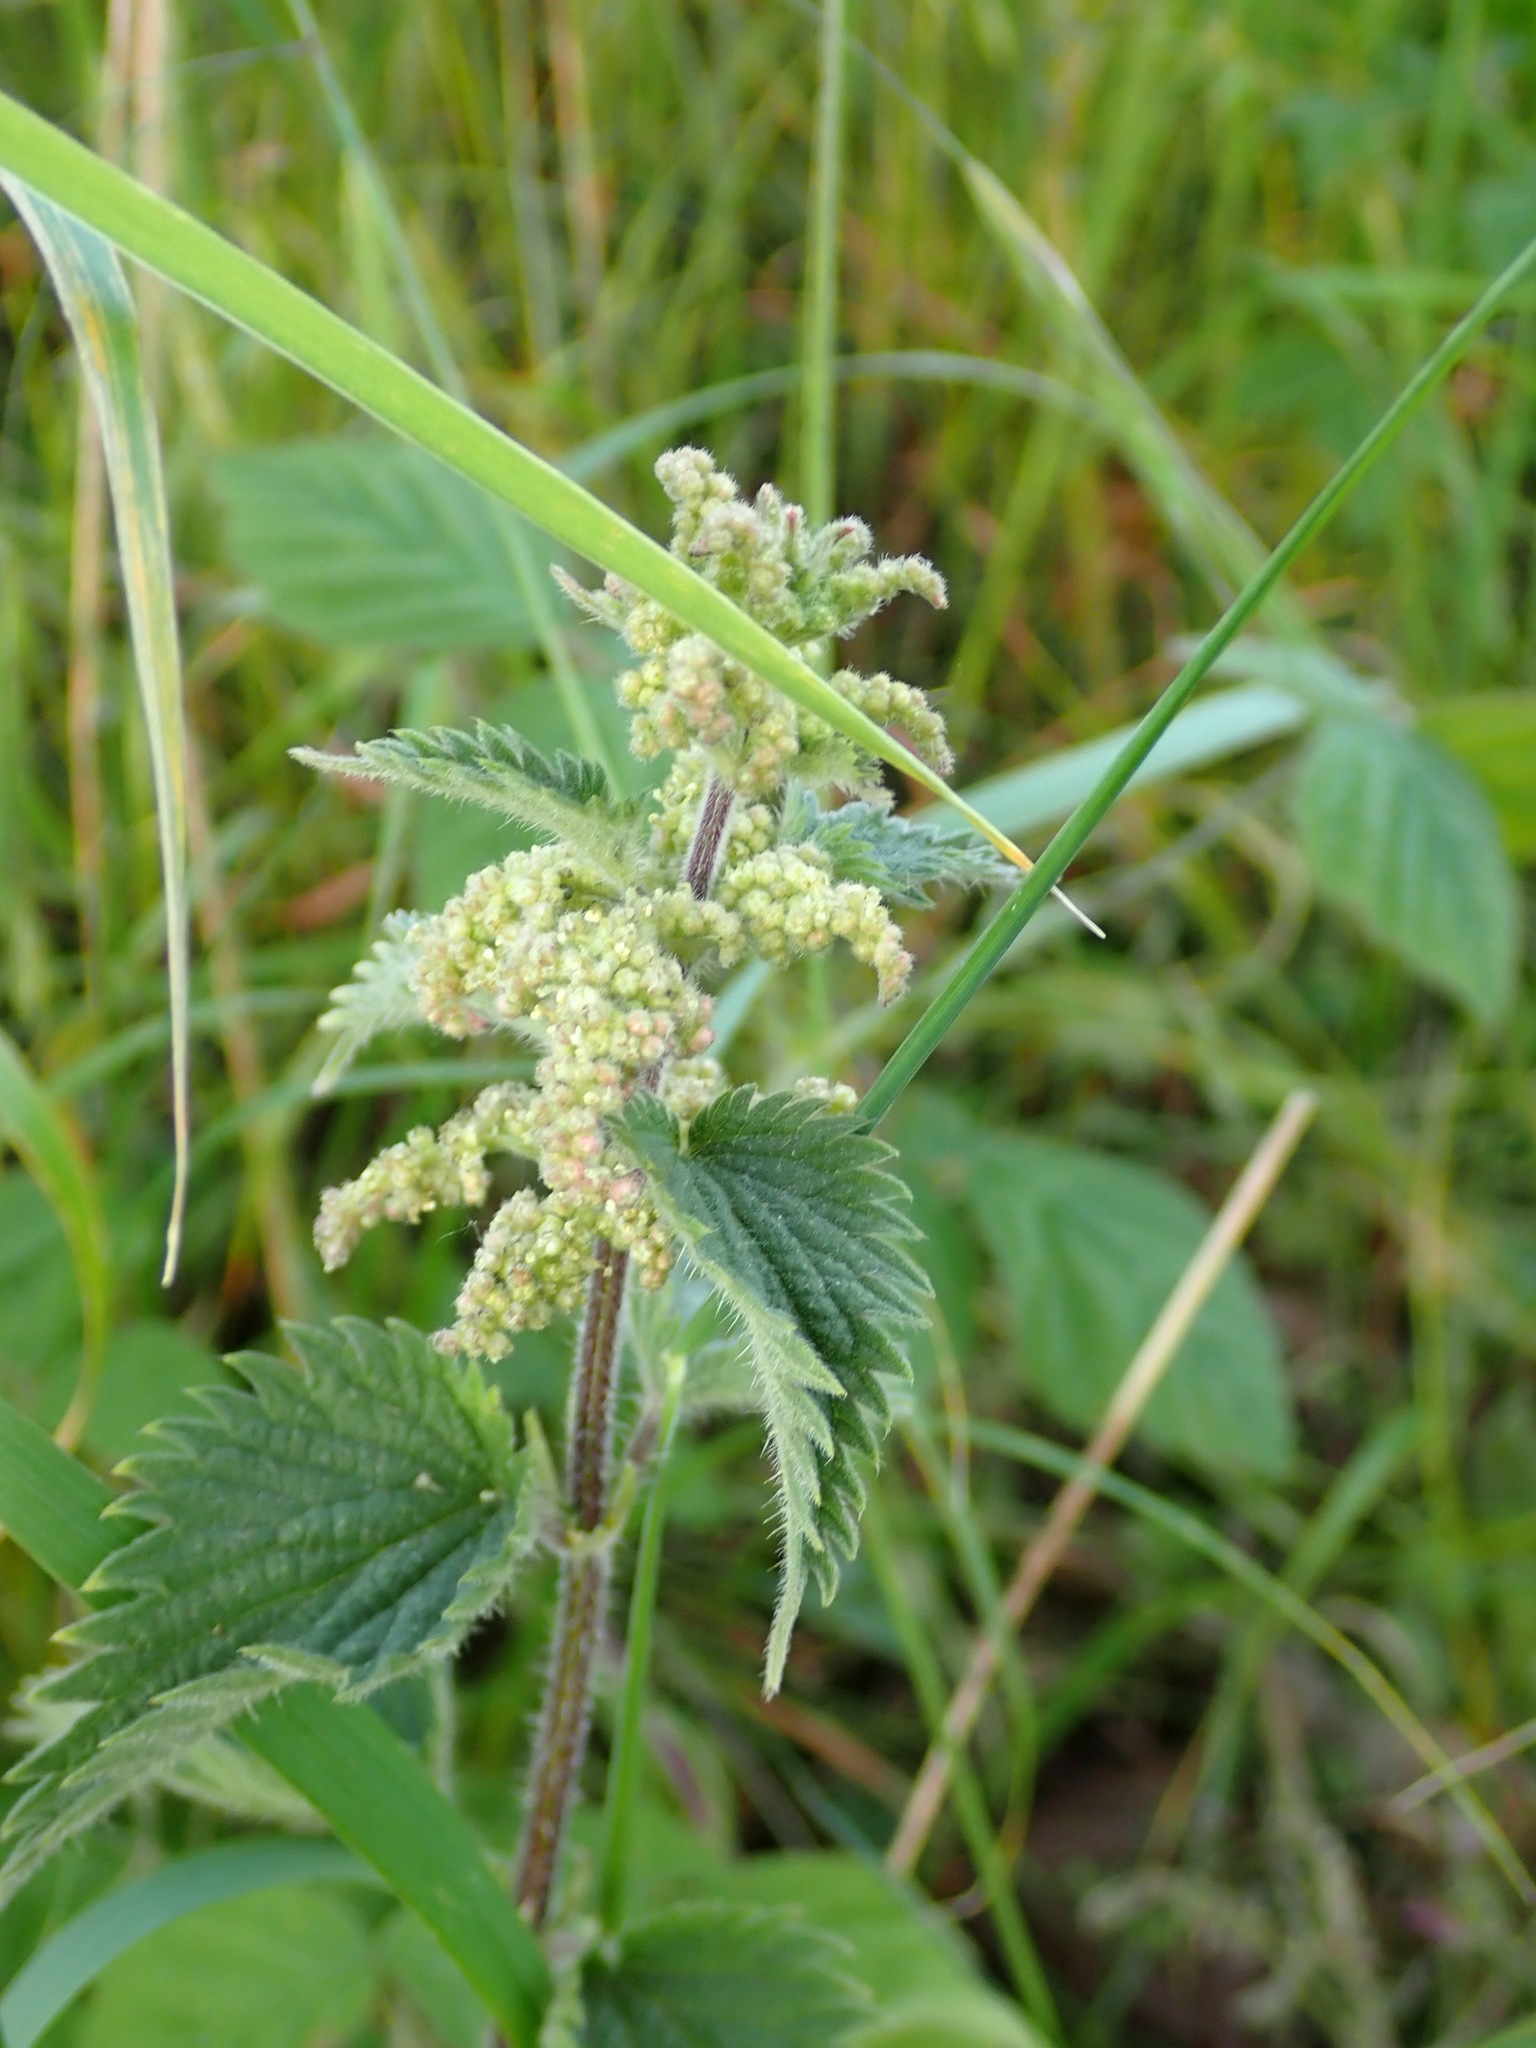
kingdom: Plantae
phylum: Tracheophyta
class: Magnoliopsida
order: Rosales
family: Urticaceae
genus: Urtica
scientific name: Urtica dioica
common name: Common nettle
